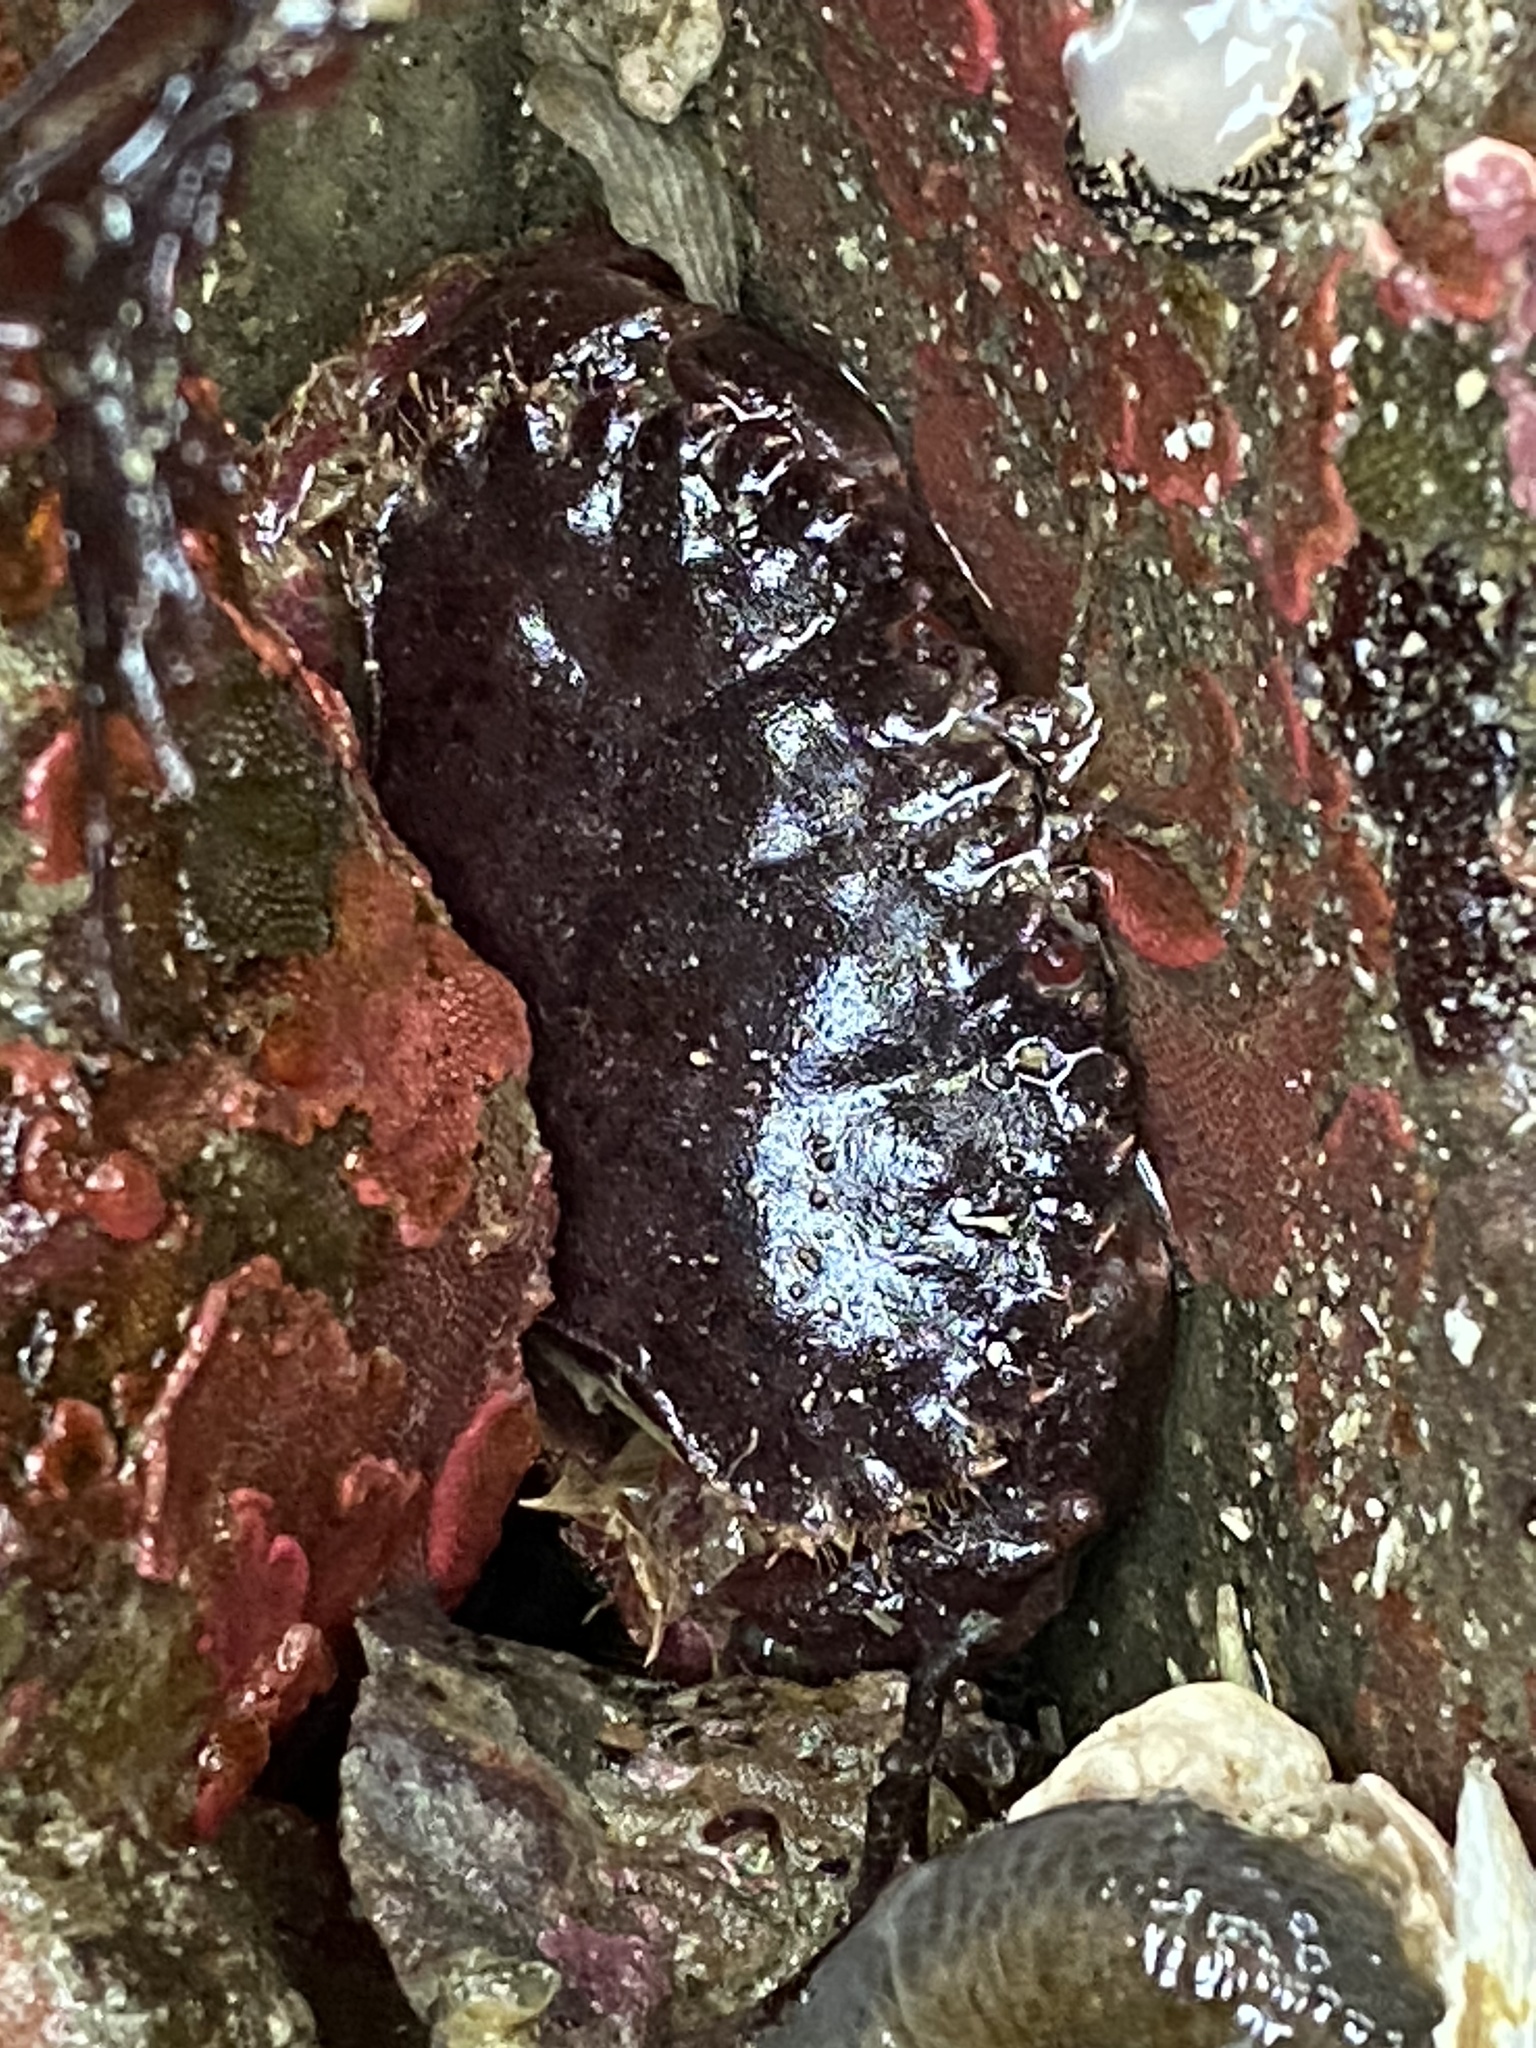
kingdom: Animalia
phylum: Arthropoda
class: Malacostraca
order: Decapoda
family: Cancridae
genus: Romaleon
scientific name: Romaleon antennarium
